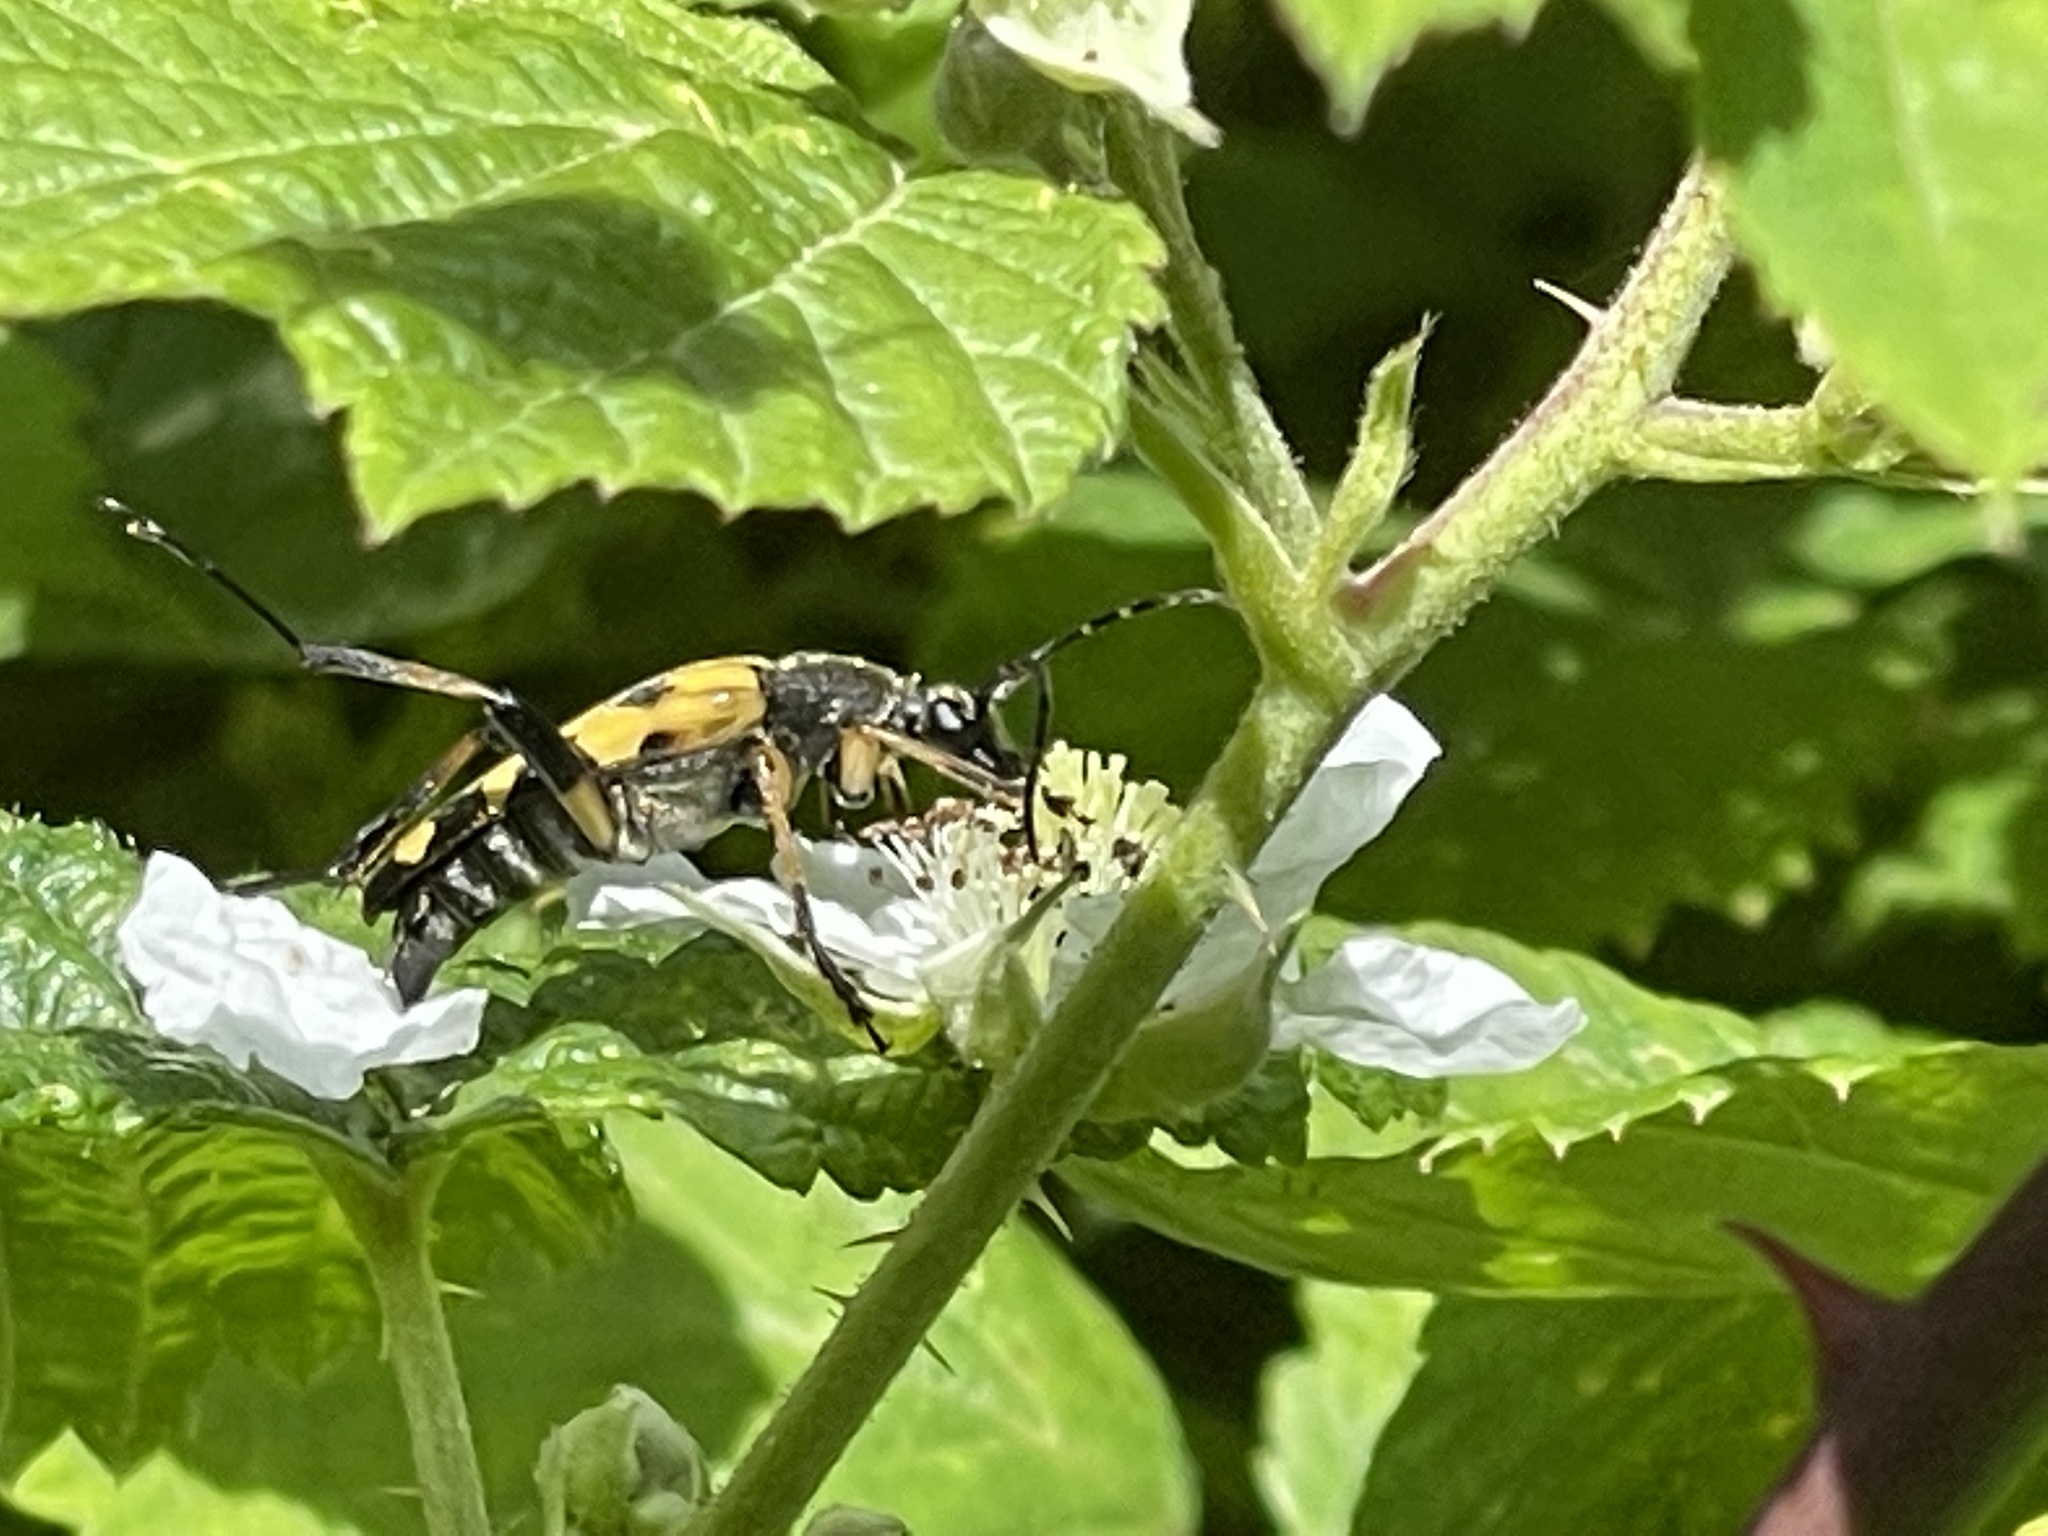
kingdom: Animalia
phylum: Arthropoda
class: Insecta
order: Coleoptera
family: Cerambycidae
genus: Rutpela
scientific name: Rutpela maculata
